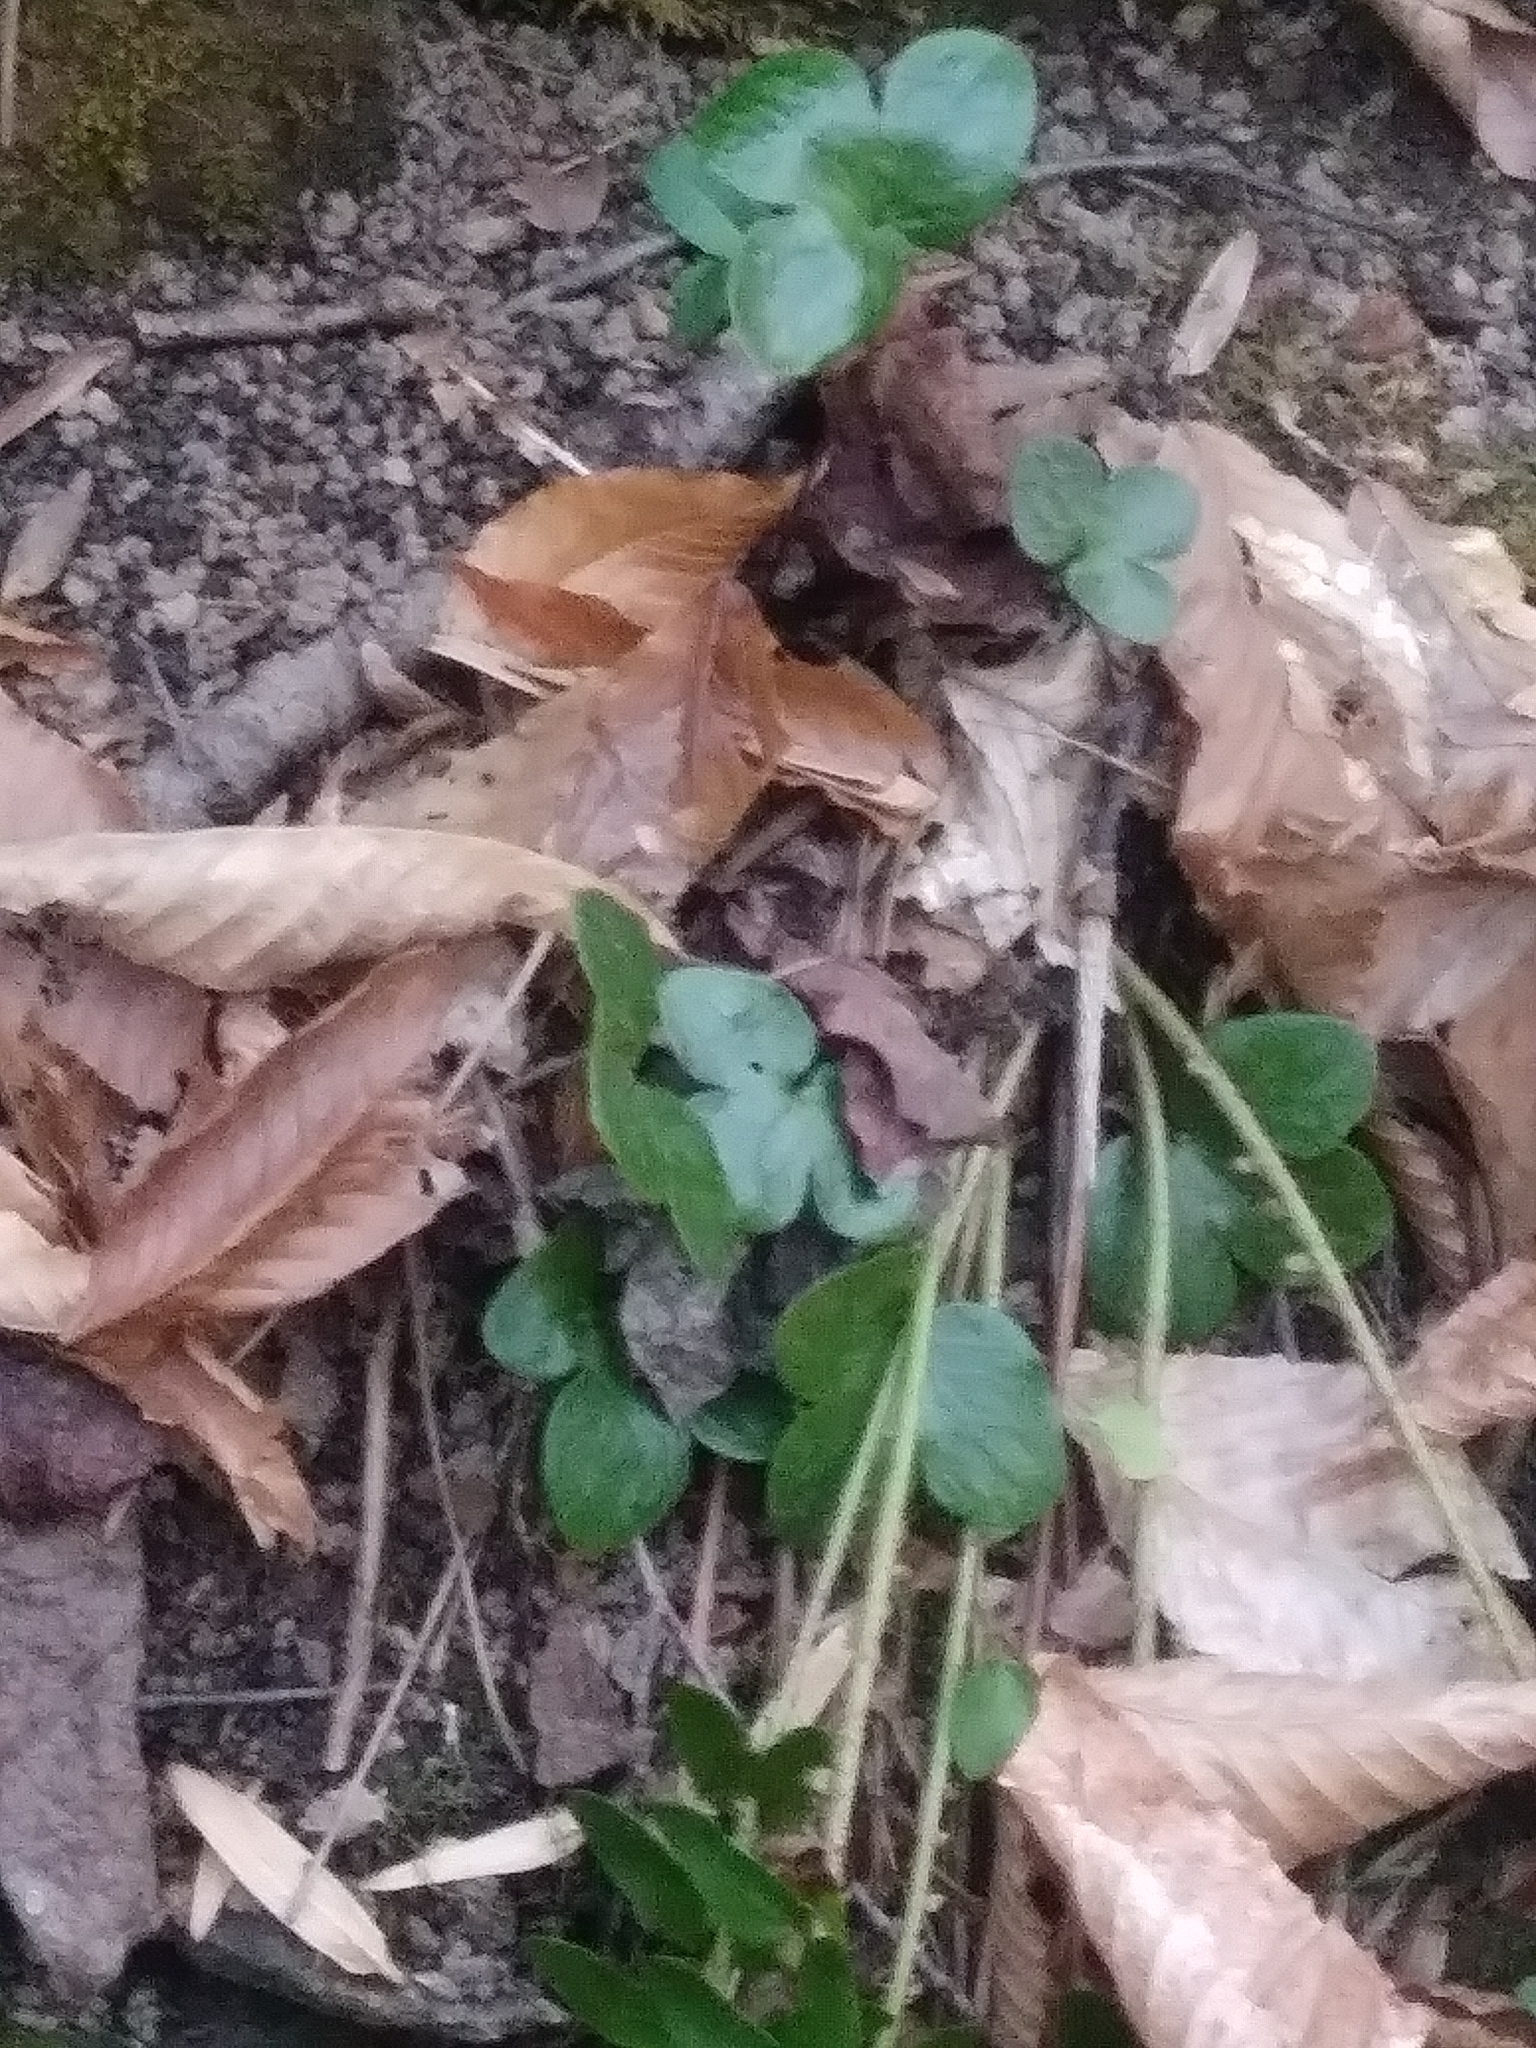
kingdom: Plantae
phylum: Tracheophyta
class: Magnoliopsida
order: Ranunculales
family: Ranunculaceae
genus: Hepatica
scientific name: Hepatica americana
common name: American hepatica
